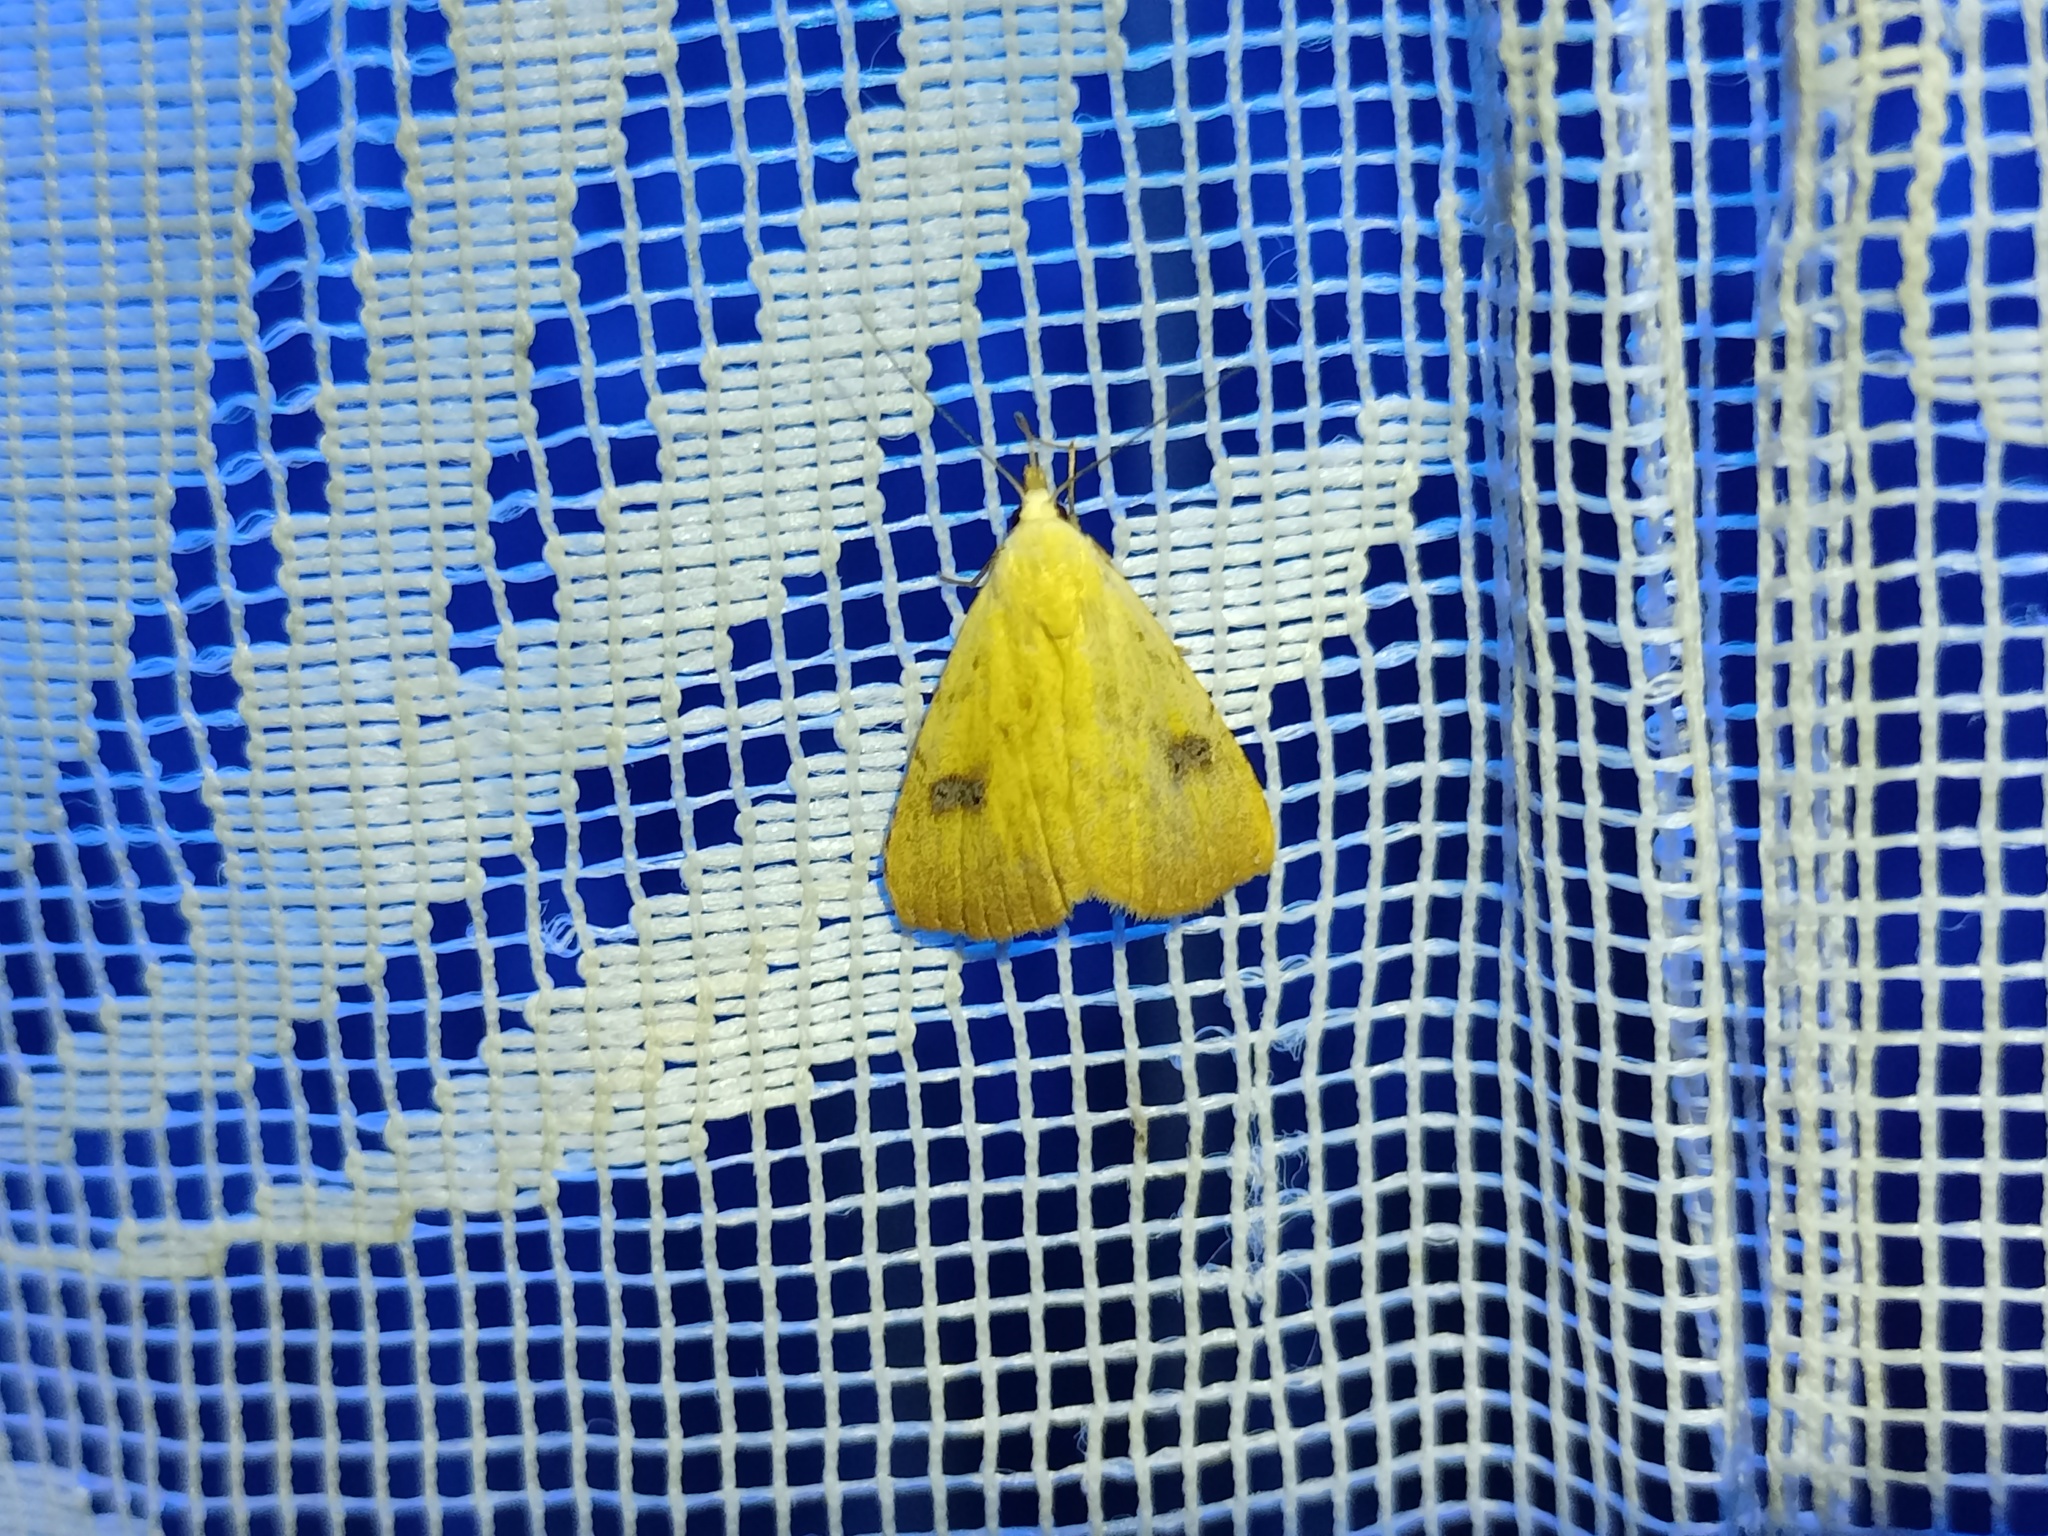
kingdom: Animalia
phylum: Arthropoda
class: Insecta
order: Lepidoptera
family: Erebidae
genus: Rivula
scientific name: Rivula sericealis
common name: Straw dot
